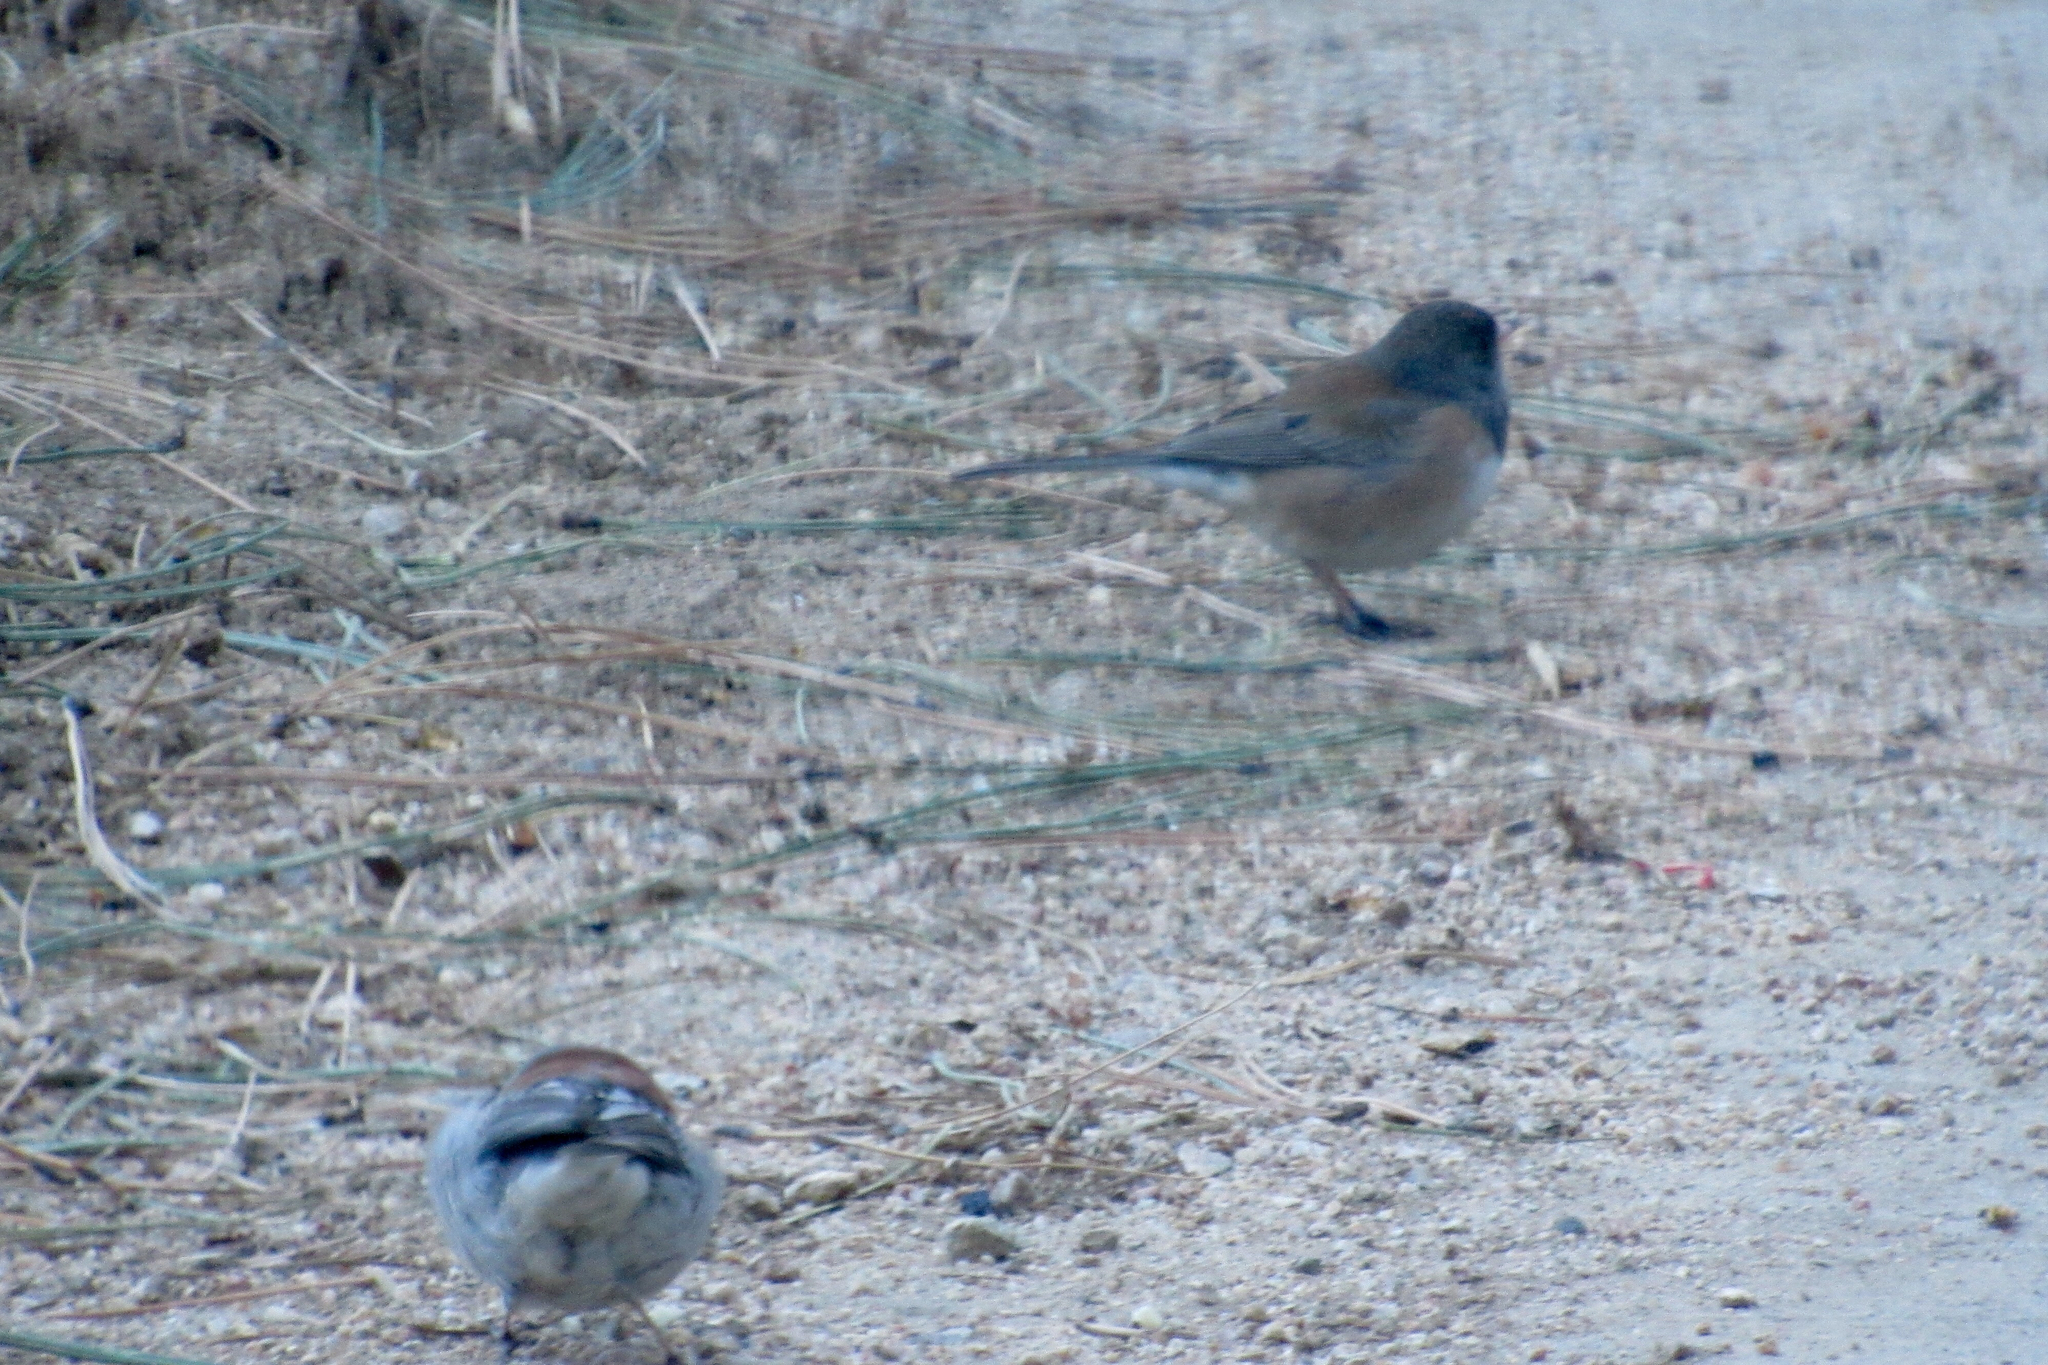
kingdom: Animalia
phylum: Chordata
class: Aves
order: Passeriformes
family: Passerellidae
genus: Junco
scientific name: Junco hyemalis
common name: Dark-eyed junco
